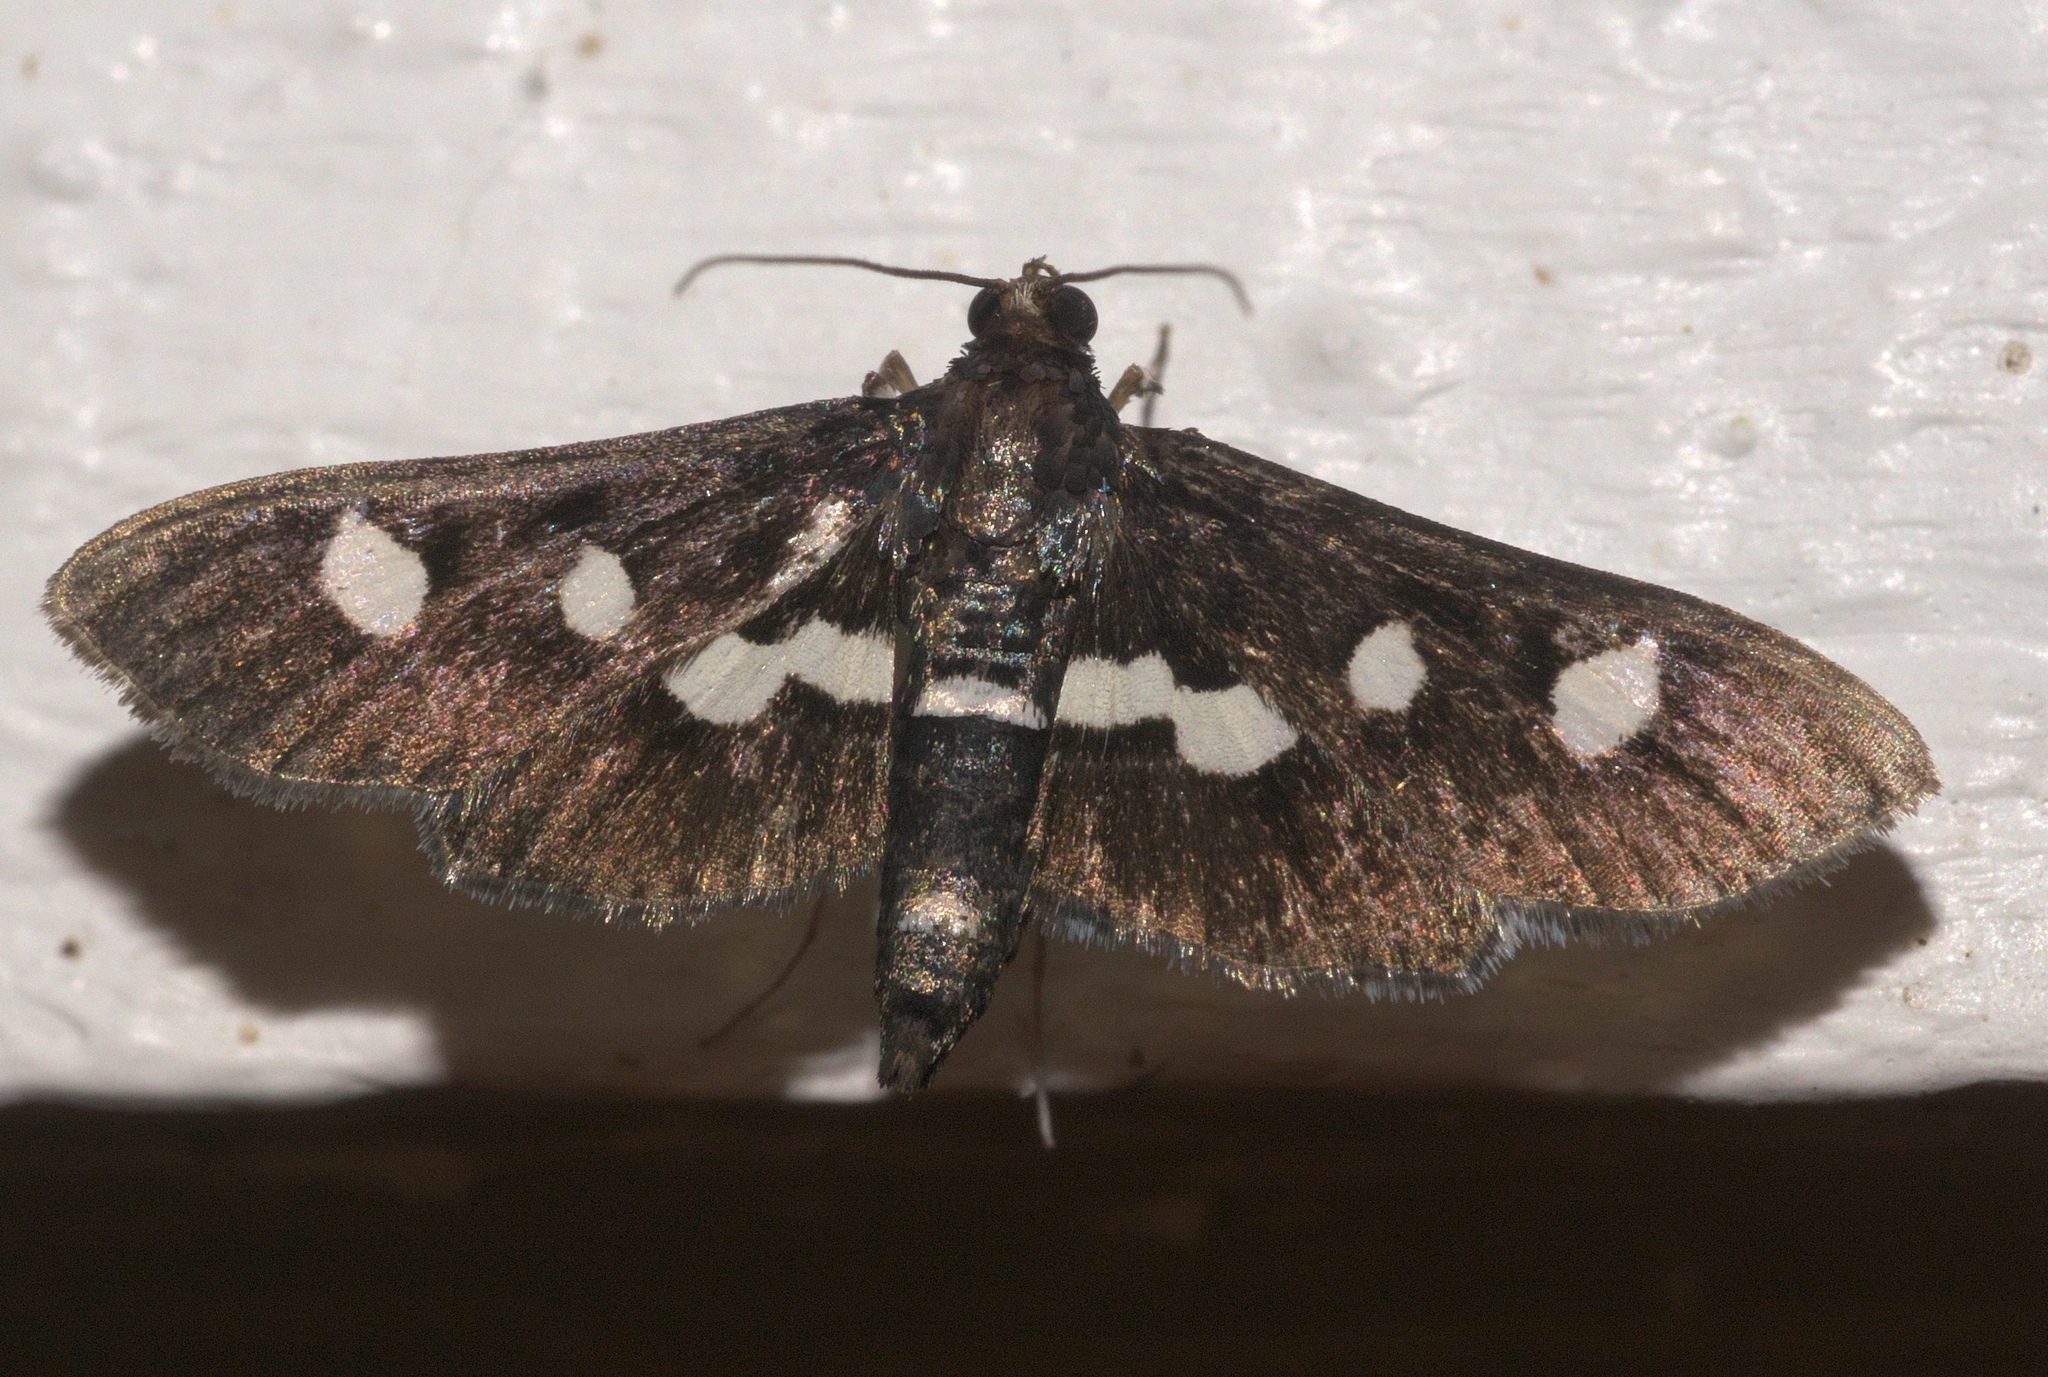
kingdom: Animalia
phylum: Arthropoda
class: Insecta
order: Lepidoptera
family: Crambidae
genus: Desmia
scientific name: Desmia
